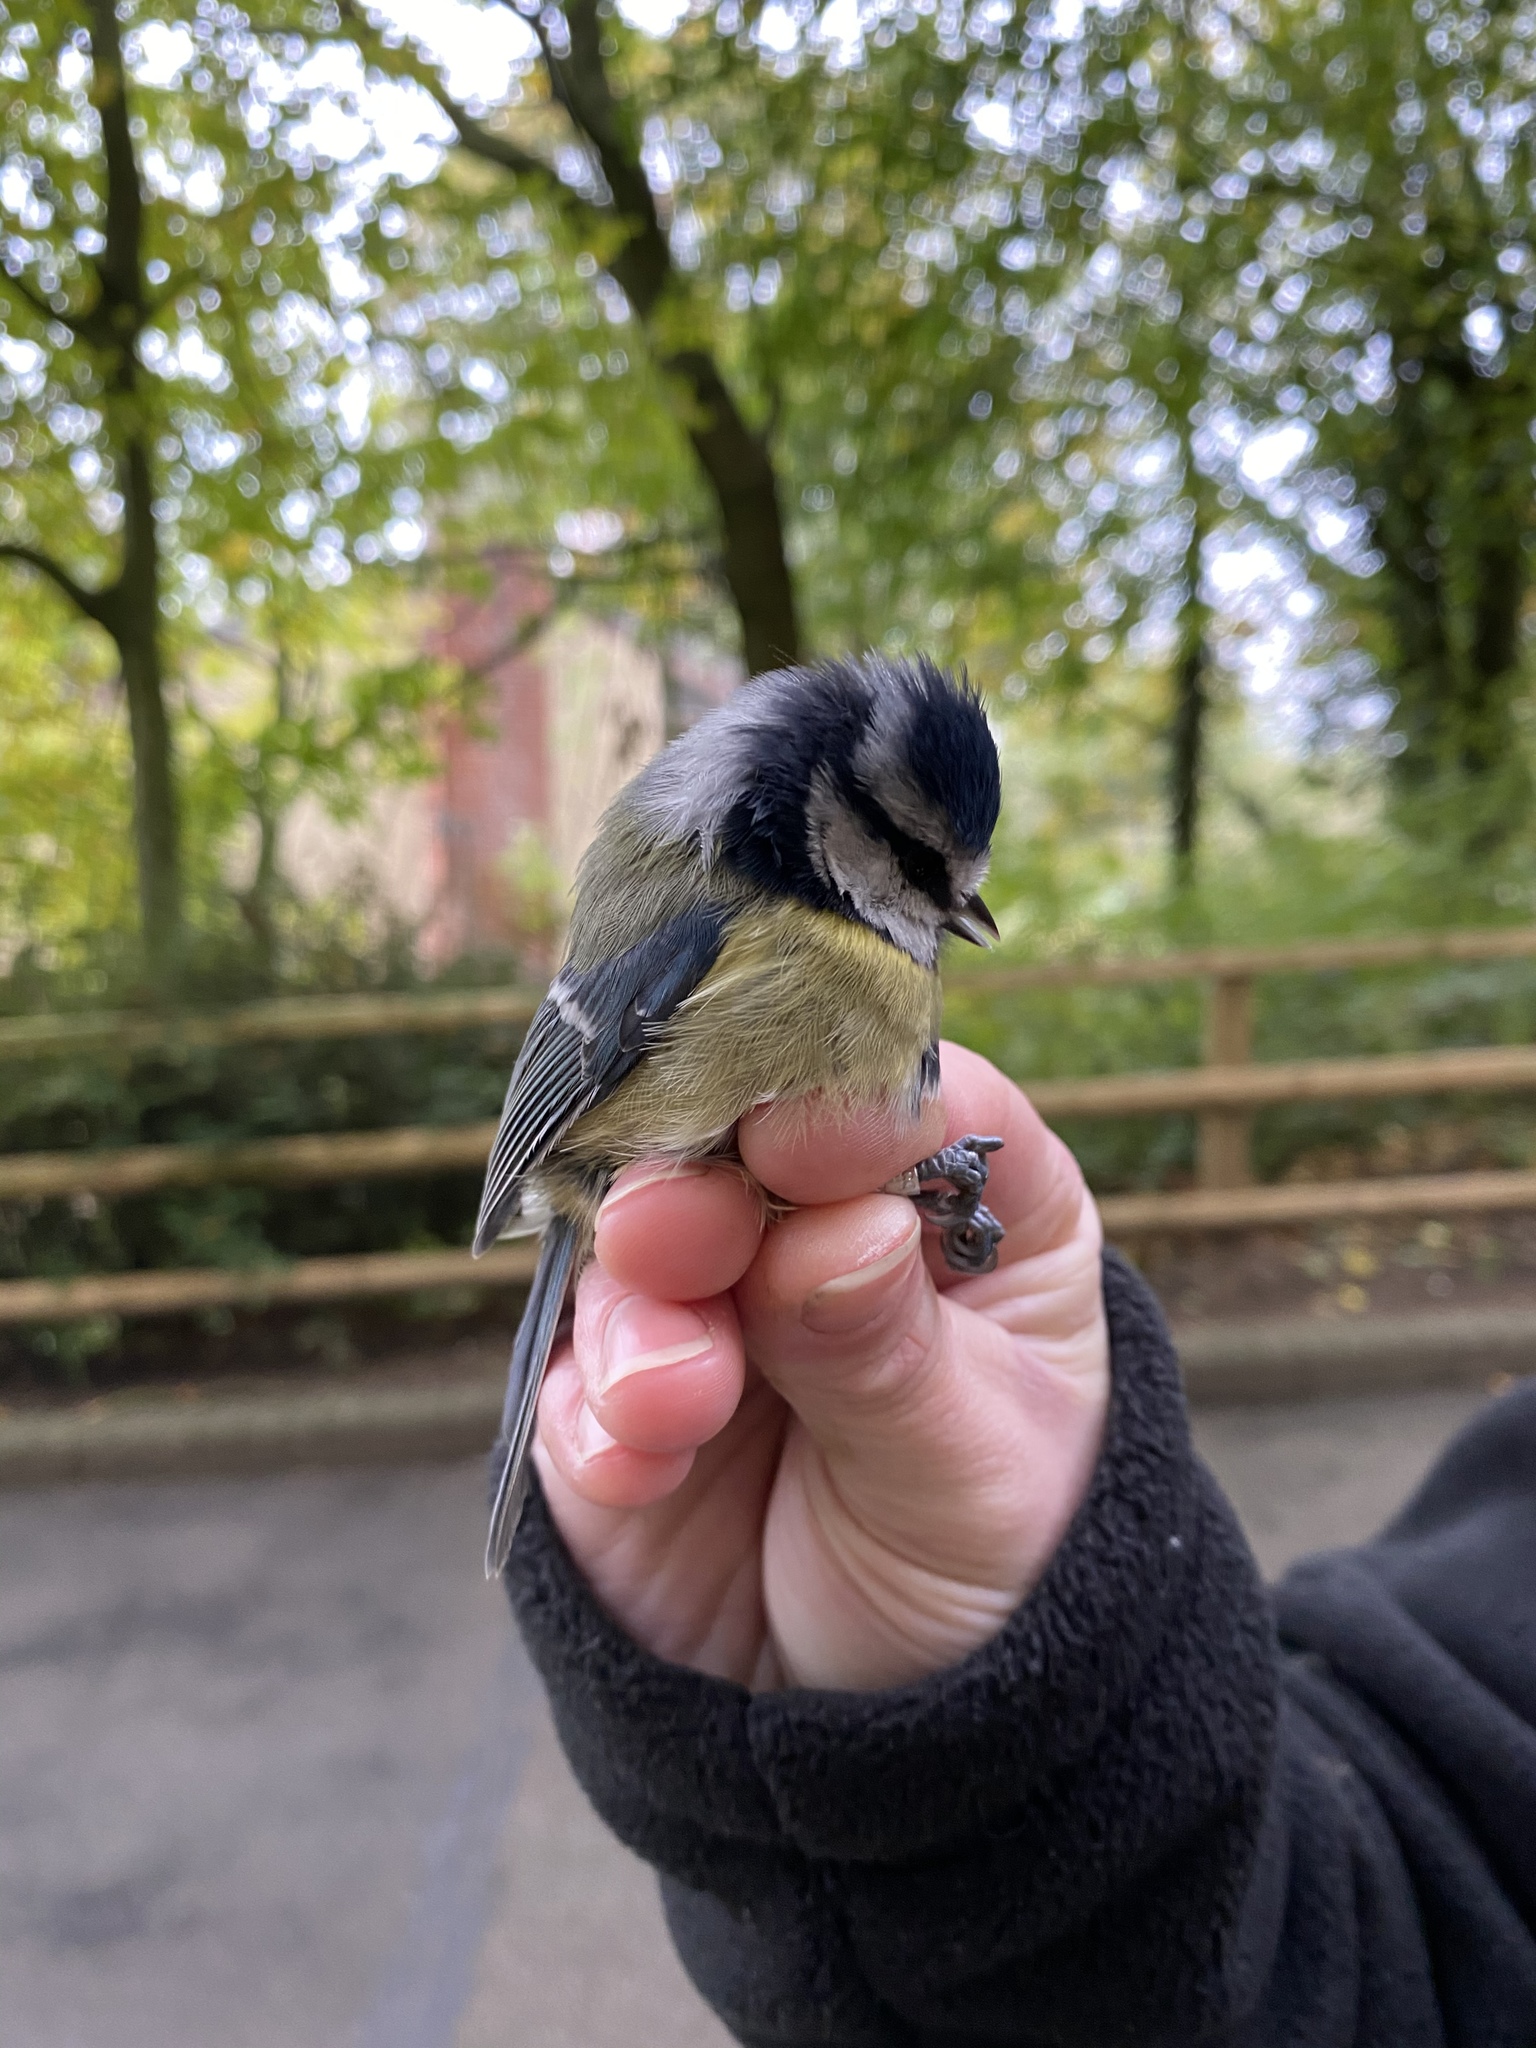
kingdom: Animalia
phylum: Chordata
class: Aves
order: Passeriformes
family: Paridae
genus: Cyanistes
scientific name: Cyanistes caeruleus
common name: Eurasian blue tit
